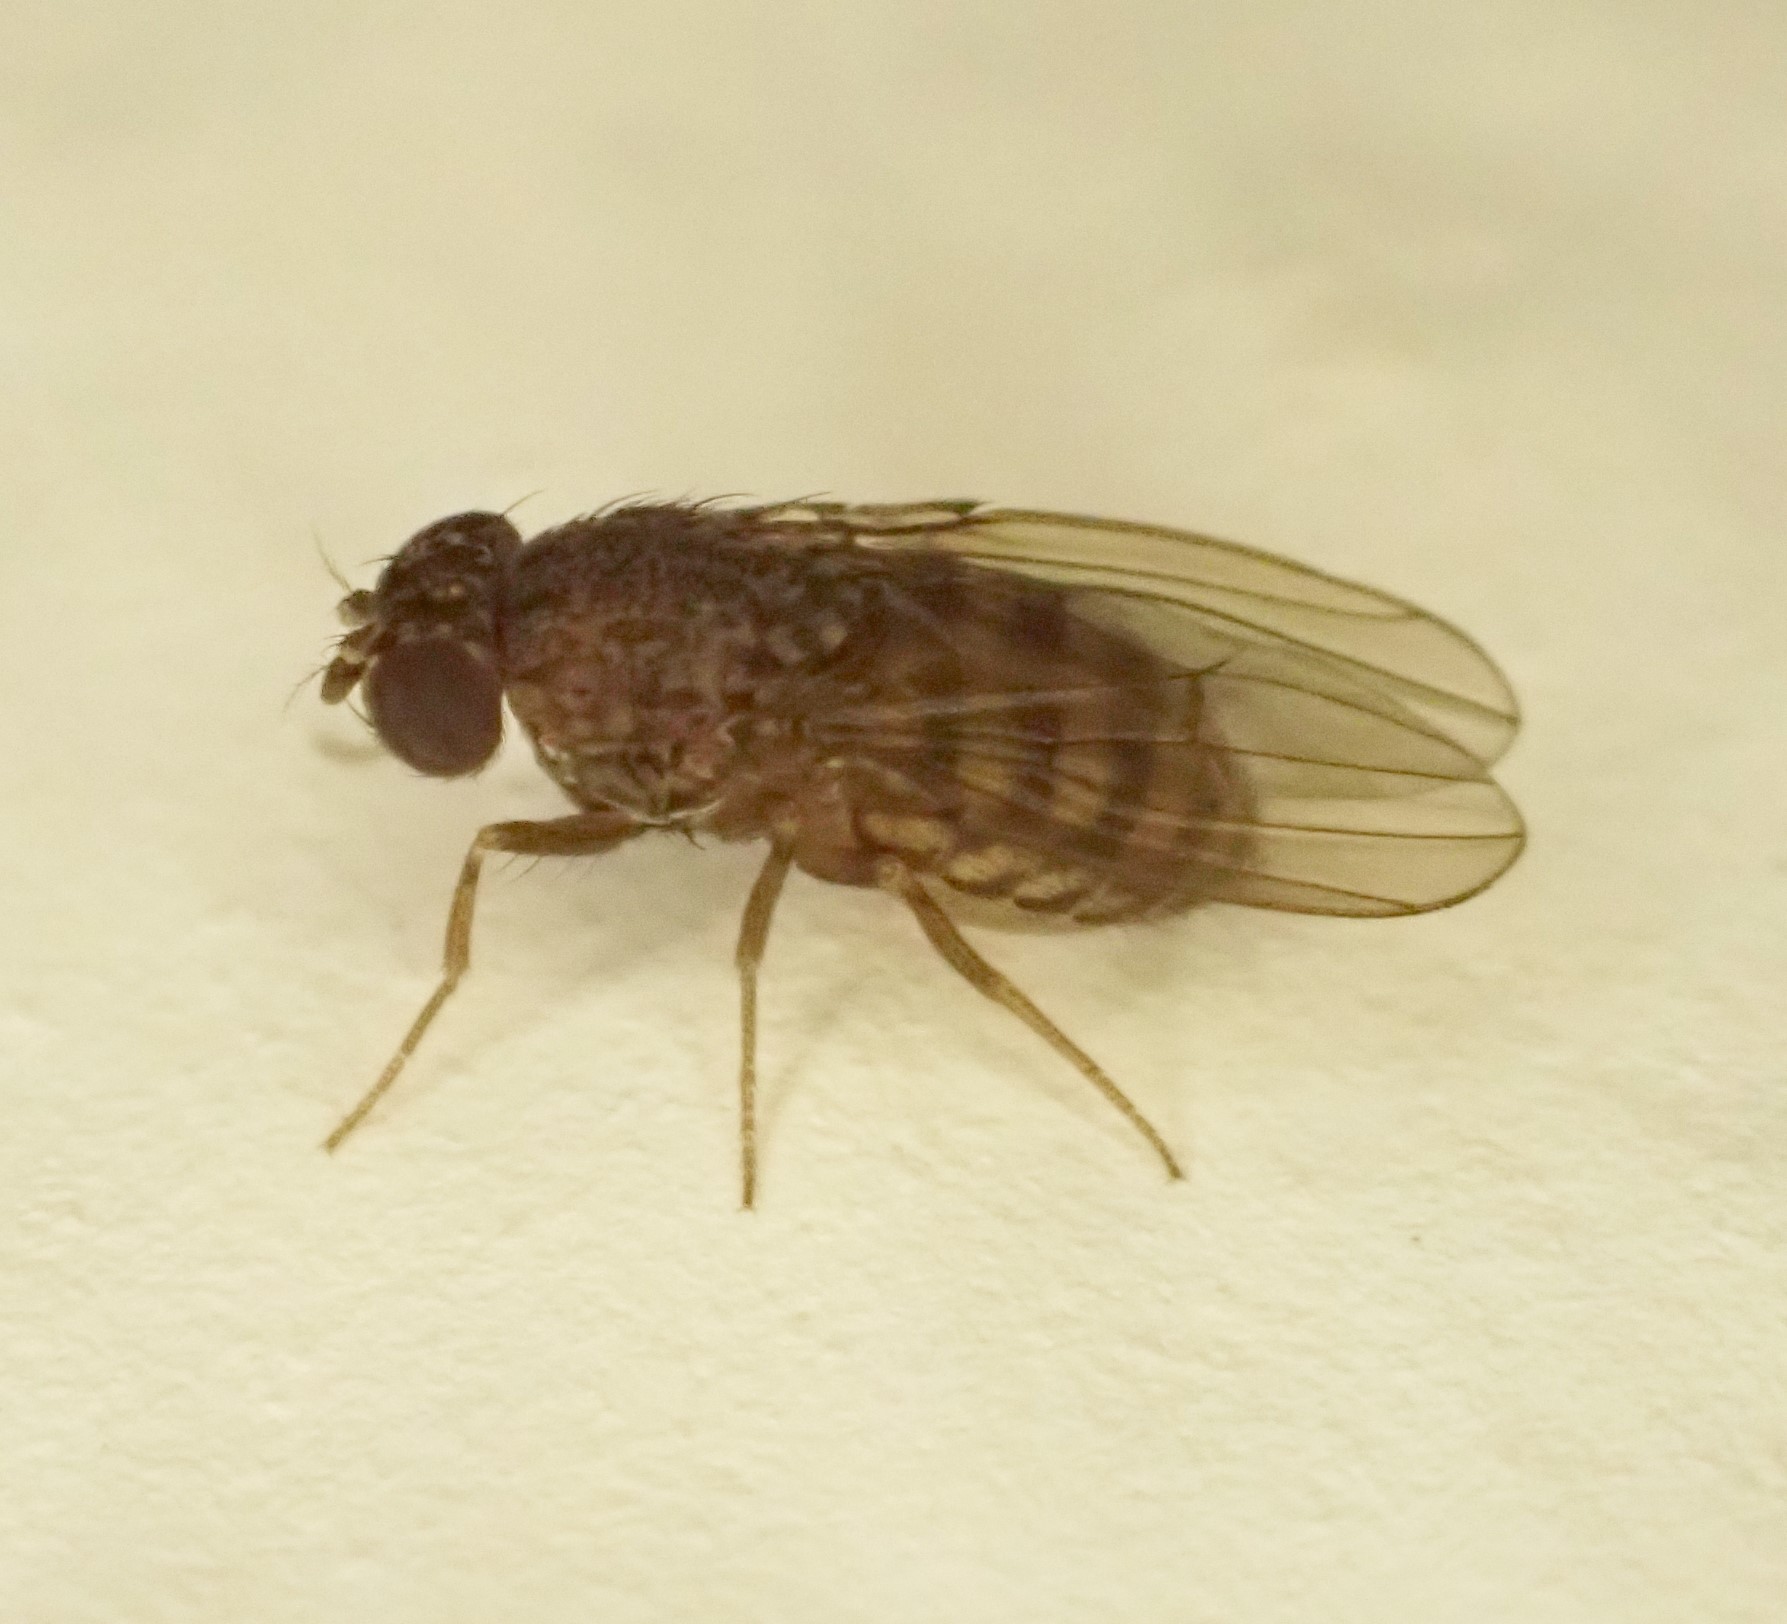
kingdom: Animalia
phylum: Arthropoda
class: Insecta
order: Diptera
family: Drosophilidae
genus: Drosophila
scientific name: Drosophila repleta
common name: Pomace fly
